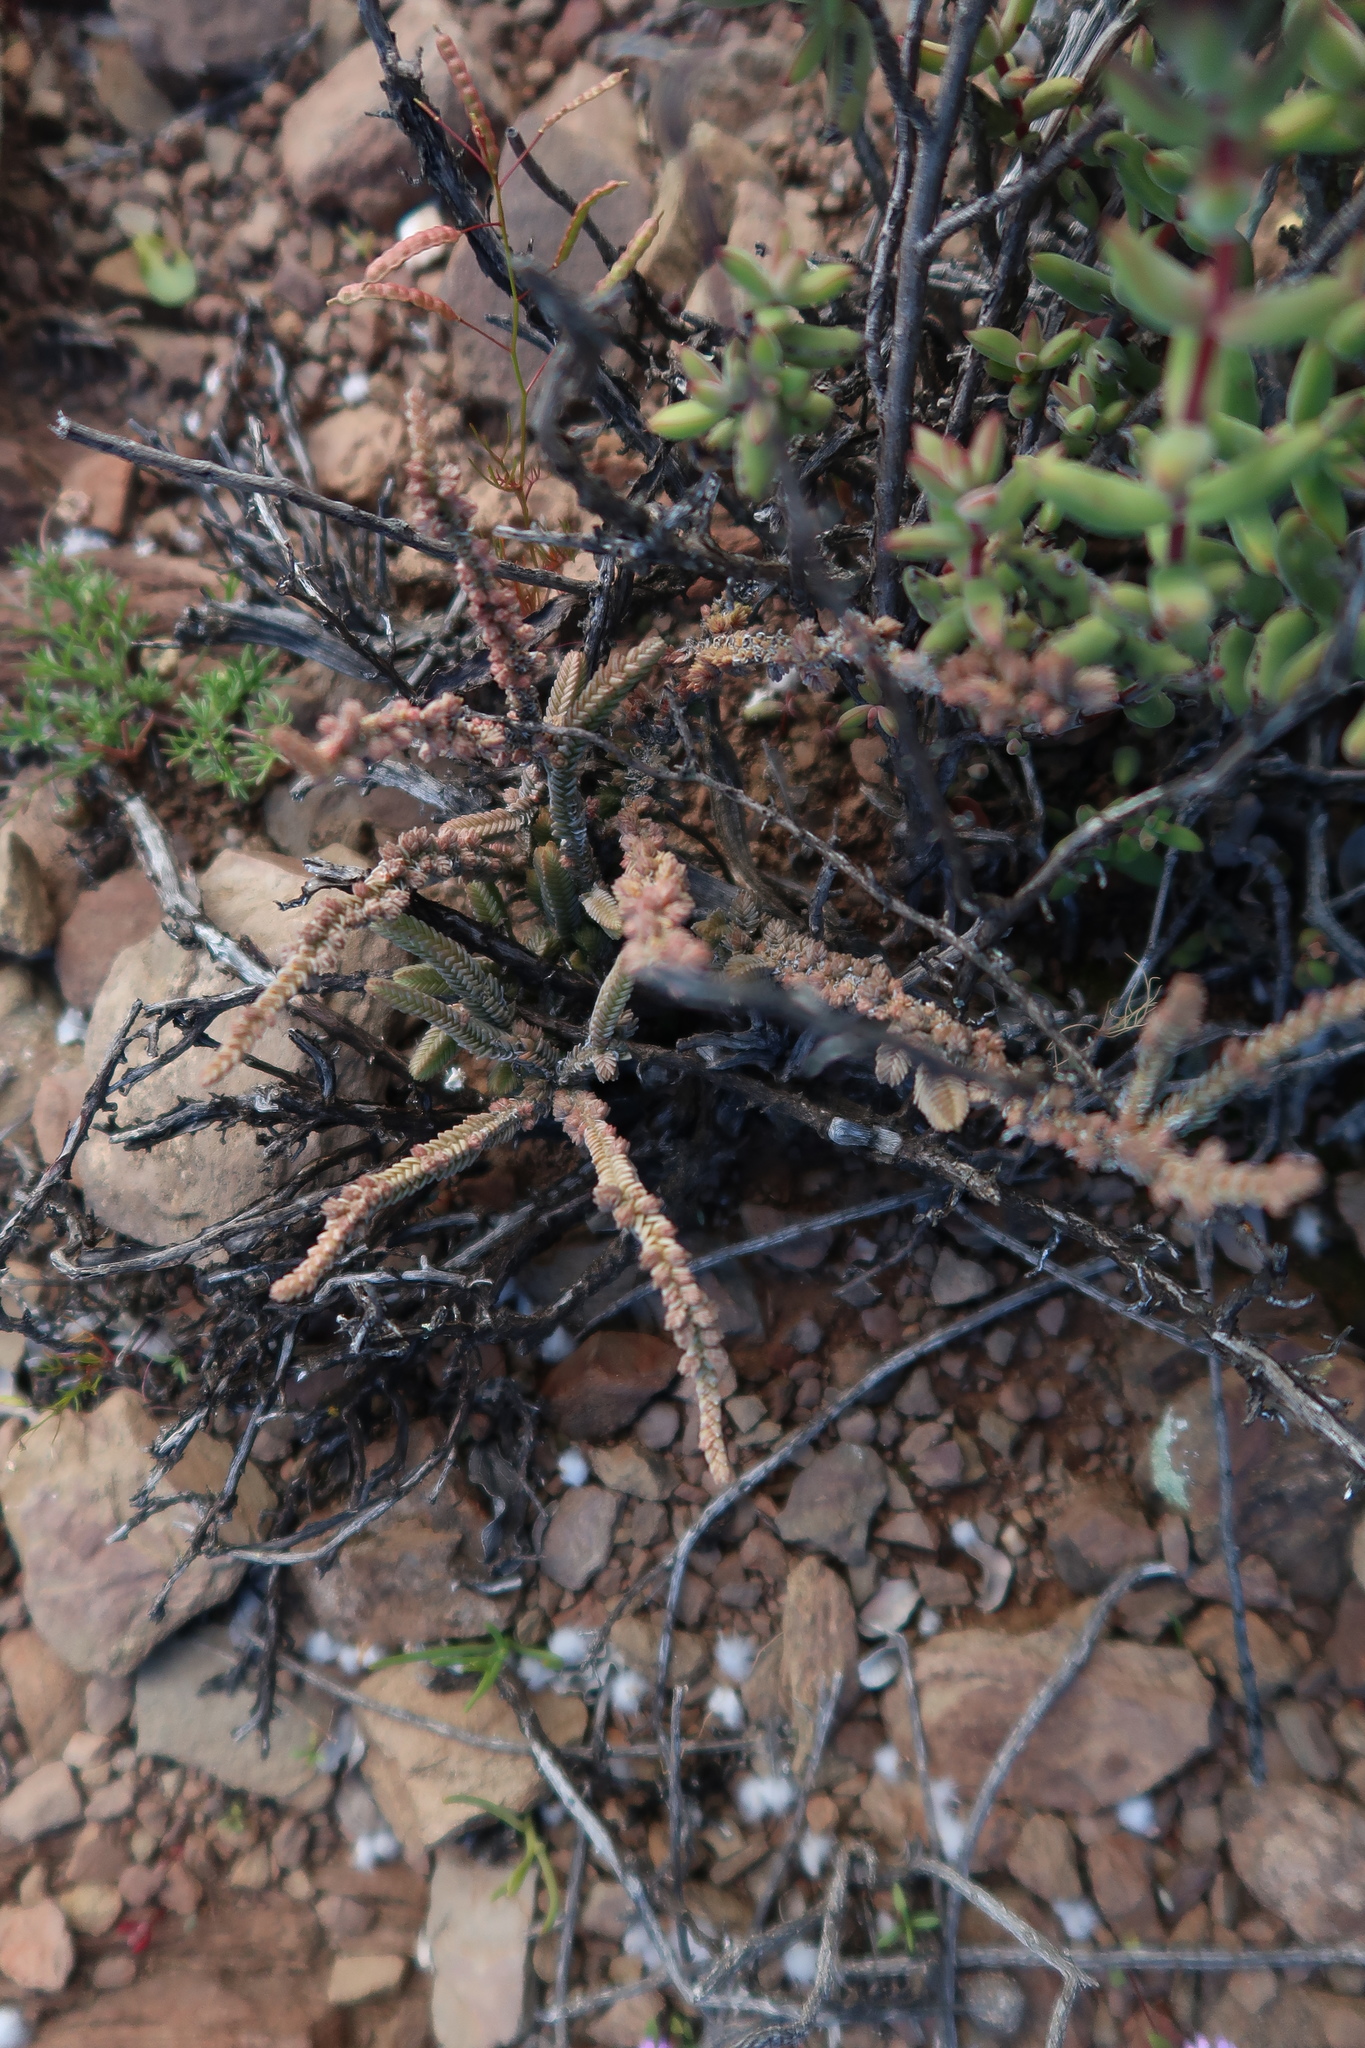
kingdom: Plantae
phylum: Tracheophyta
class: Magnoliopsida
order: Saxifragales
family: Crassulaceae
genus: Crassula
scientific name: Crassula muscosa
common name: Toy-cypress
